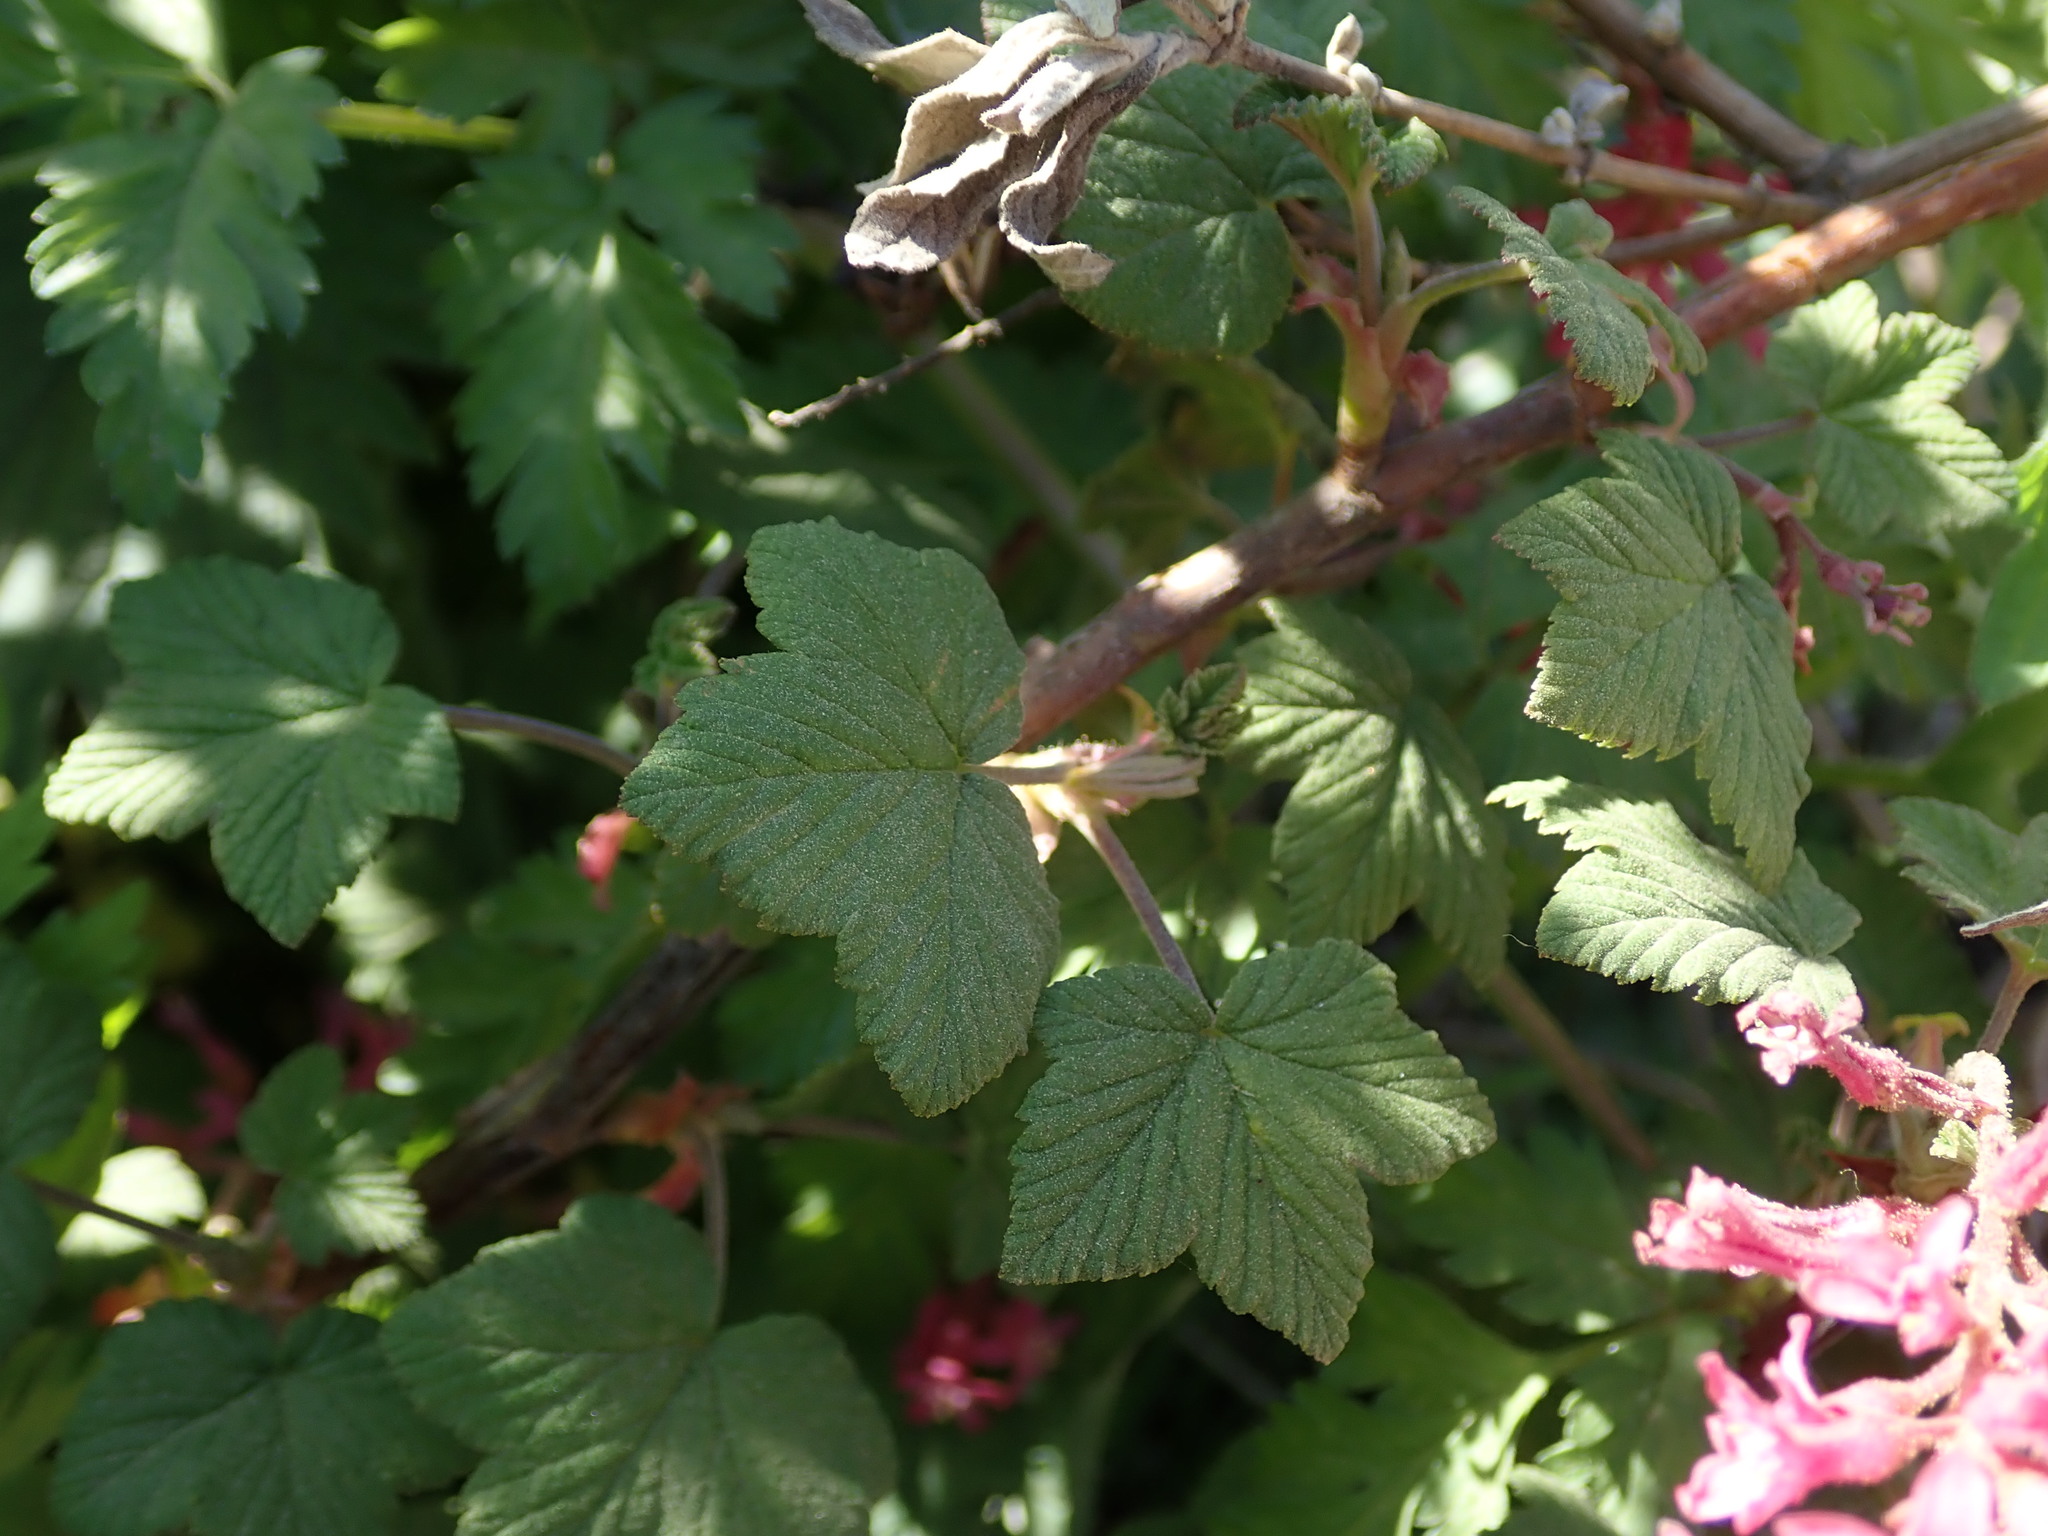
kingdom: Plantae
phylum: Tracheophyta
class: Magnoliopsida
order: Saxifragales
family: Grossulariaceae
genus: Ribes
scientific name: Ribes sanguineum
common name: Flowering currant
